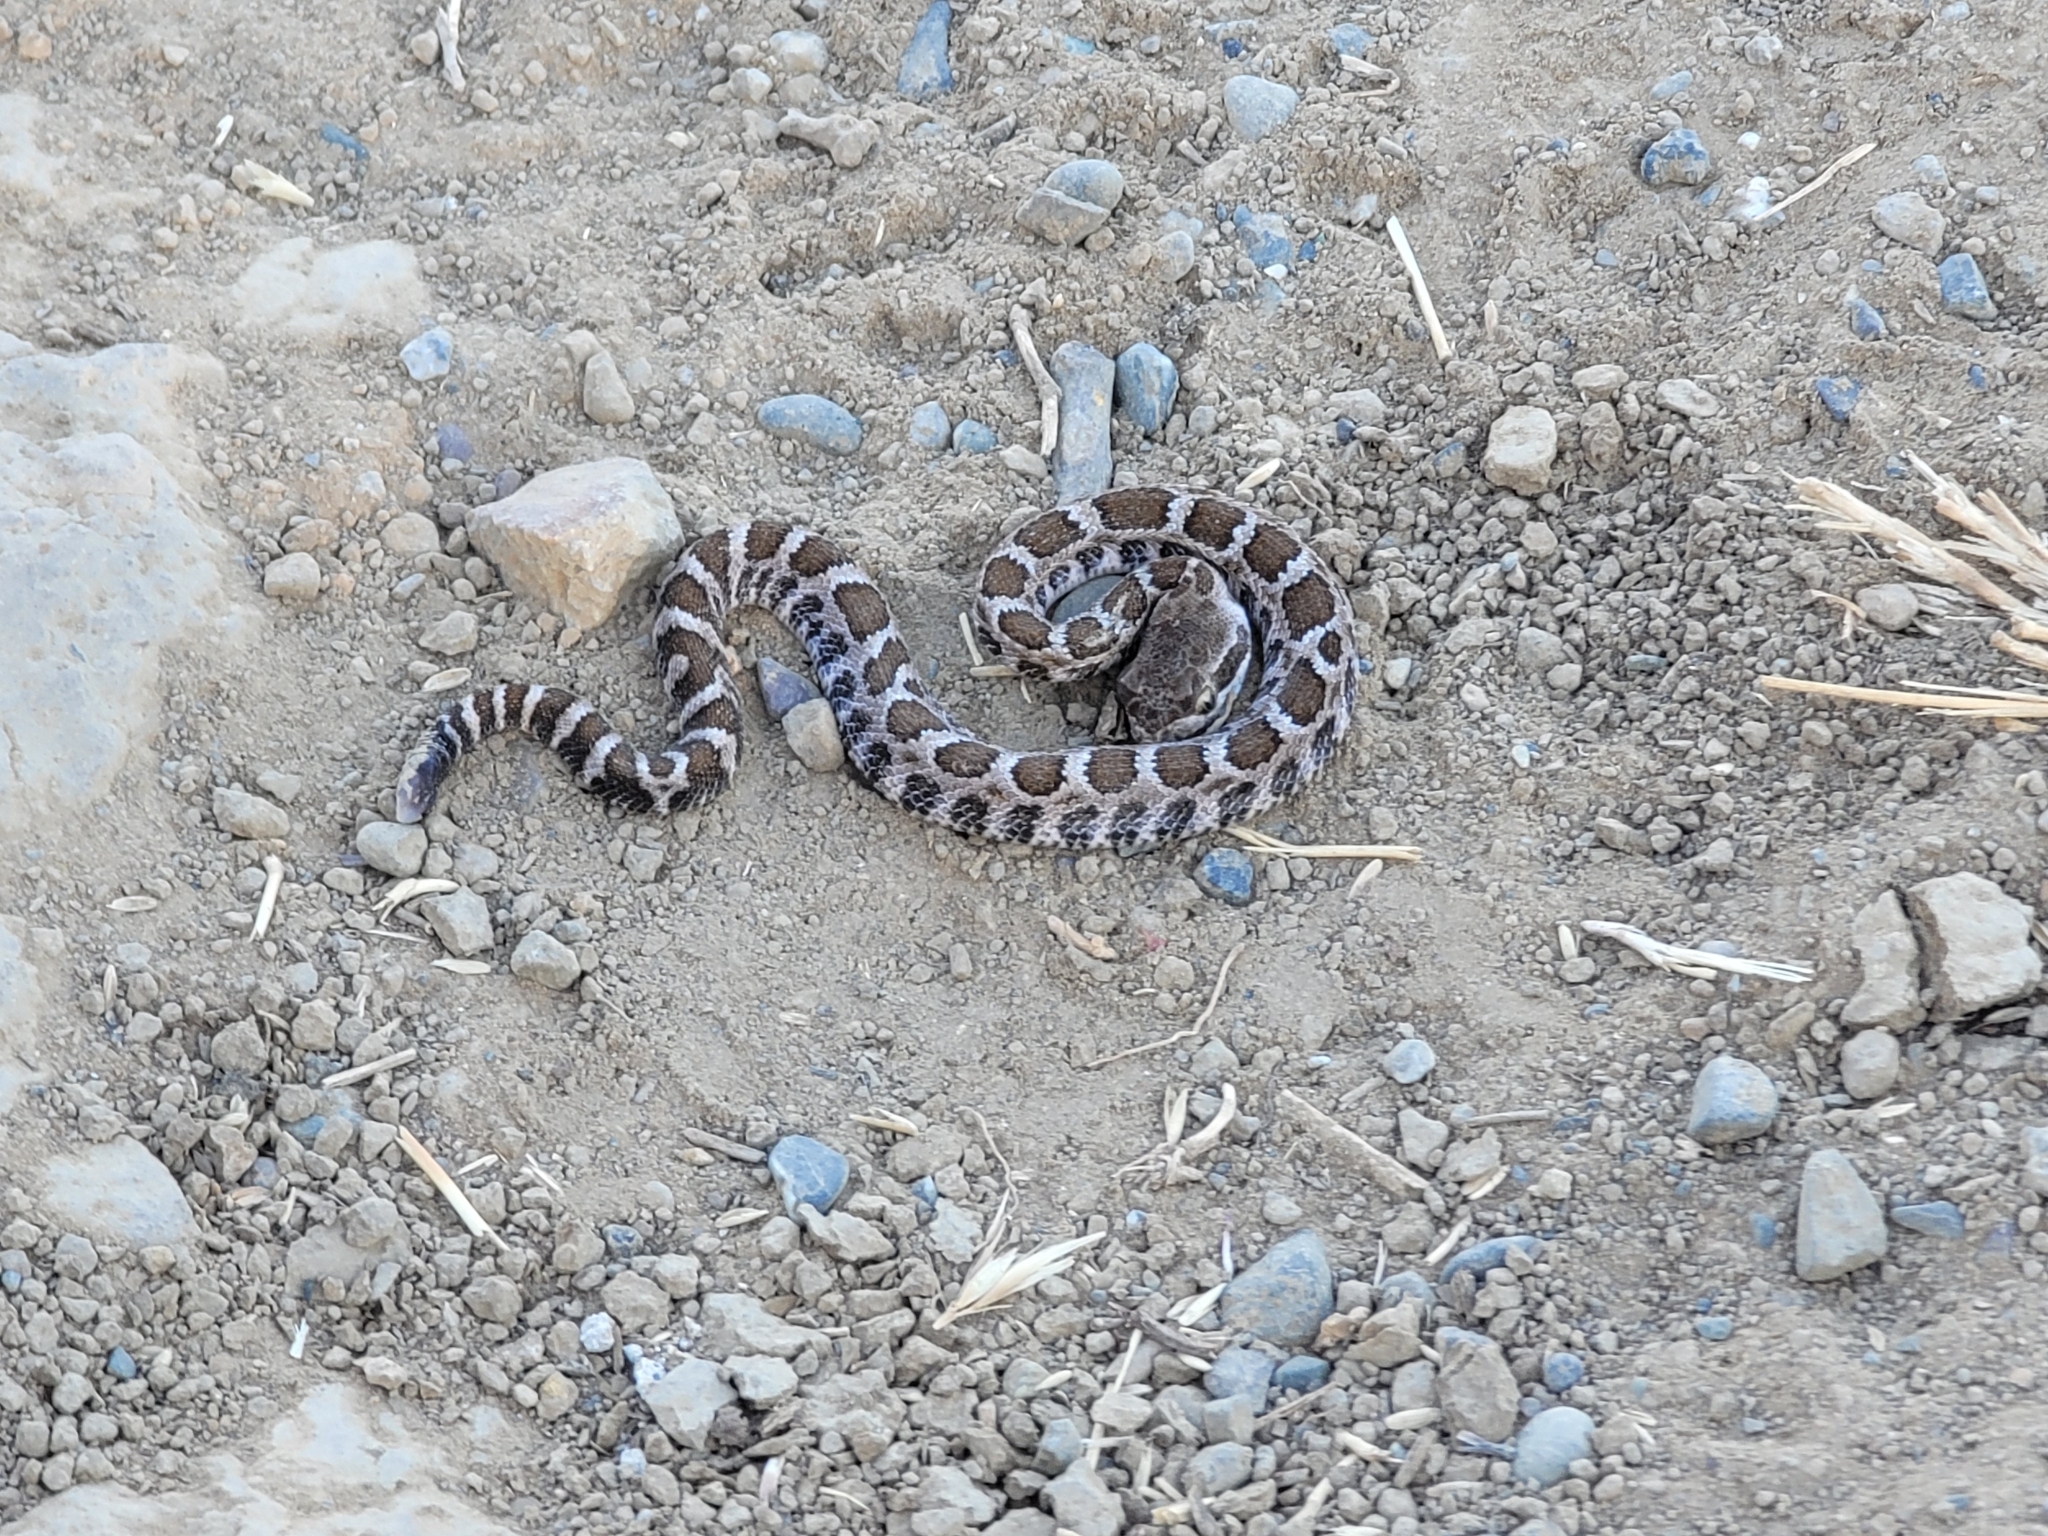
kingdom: Animalia
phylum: Chordata
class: Squamata
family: Viperidae
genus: Crotalus
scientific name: Crotalus oreganus
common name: Abyssus
